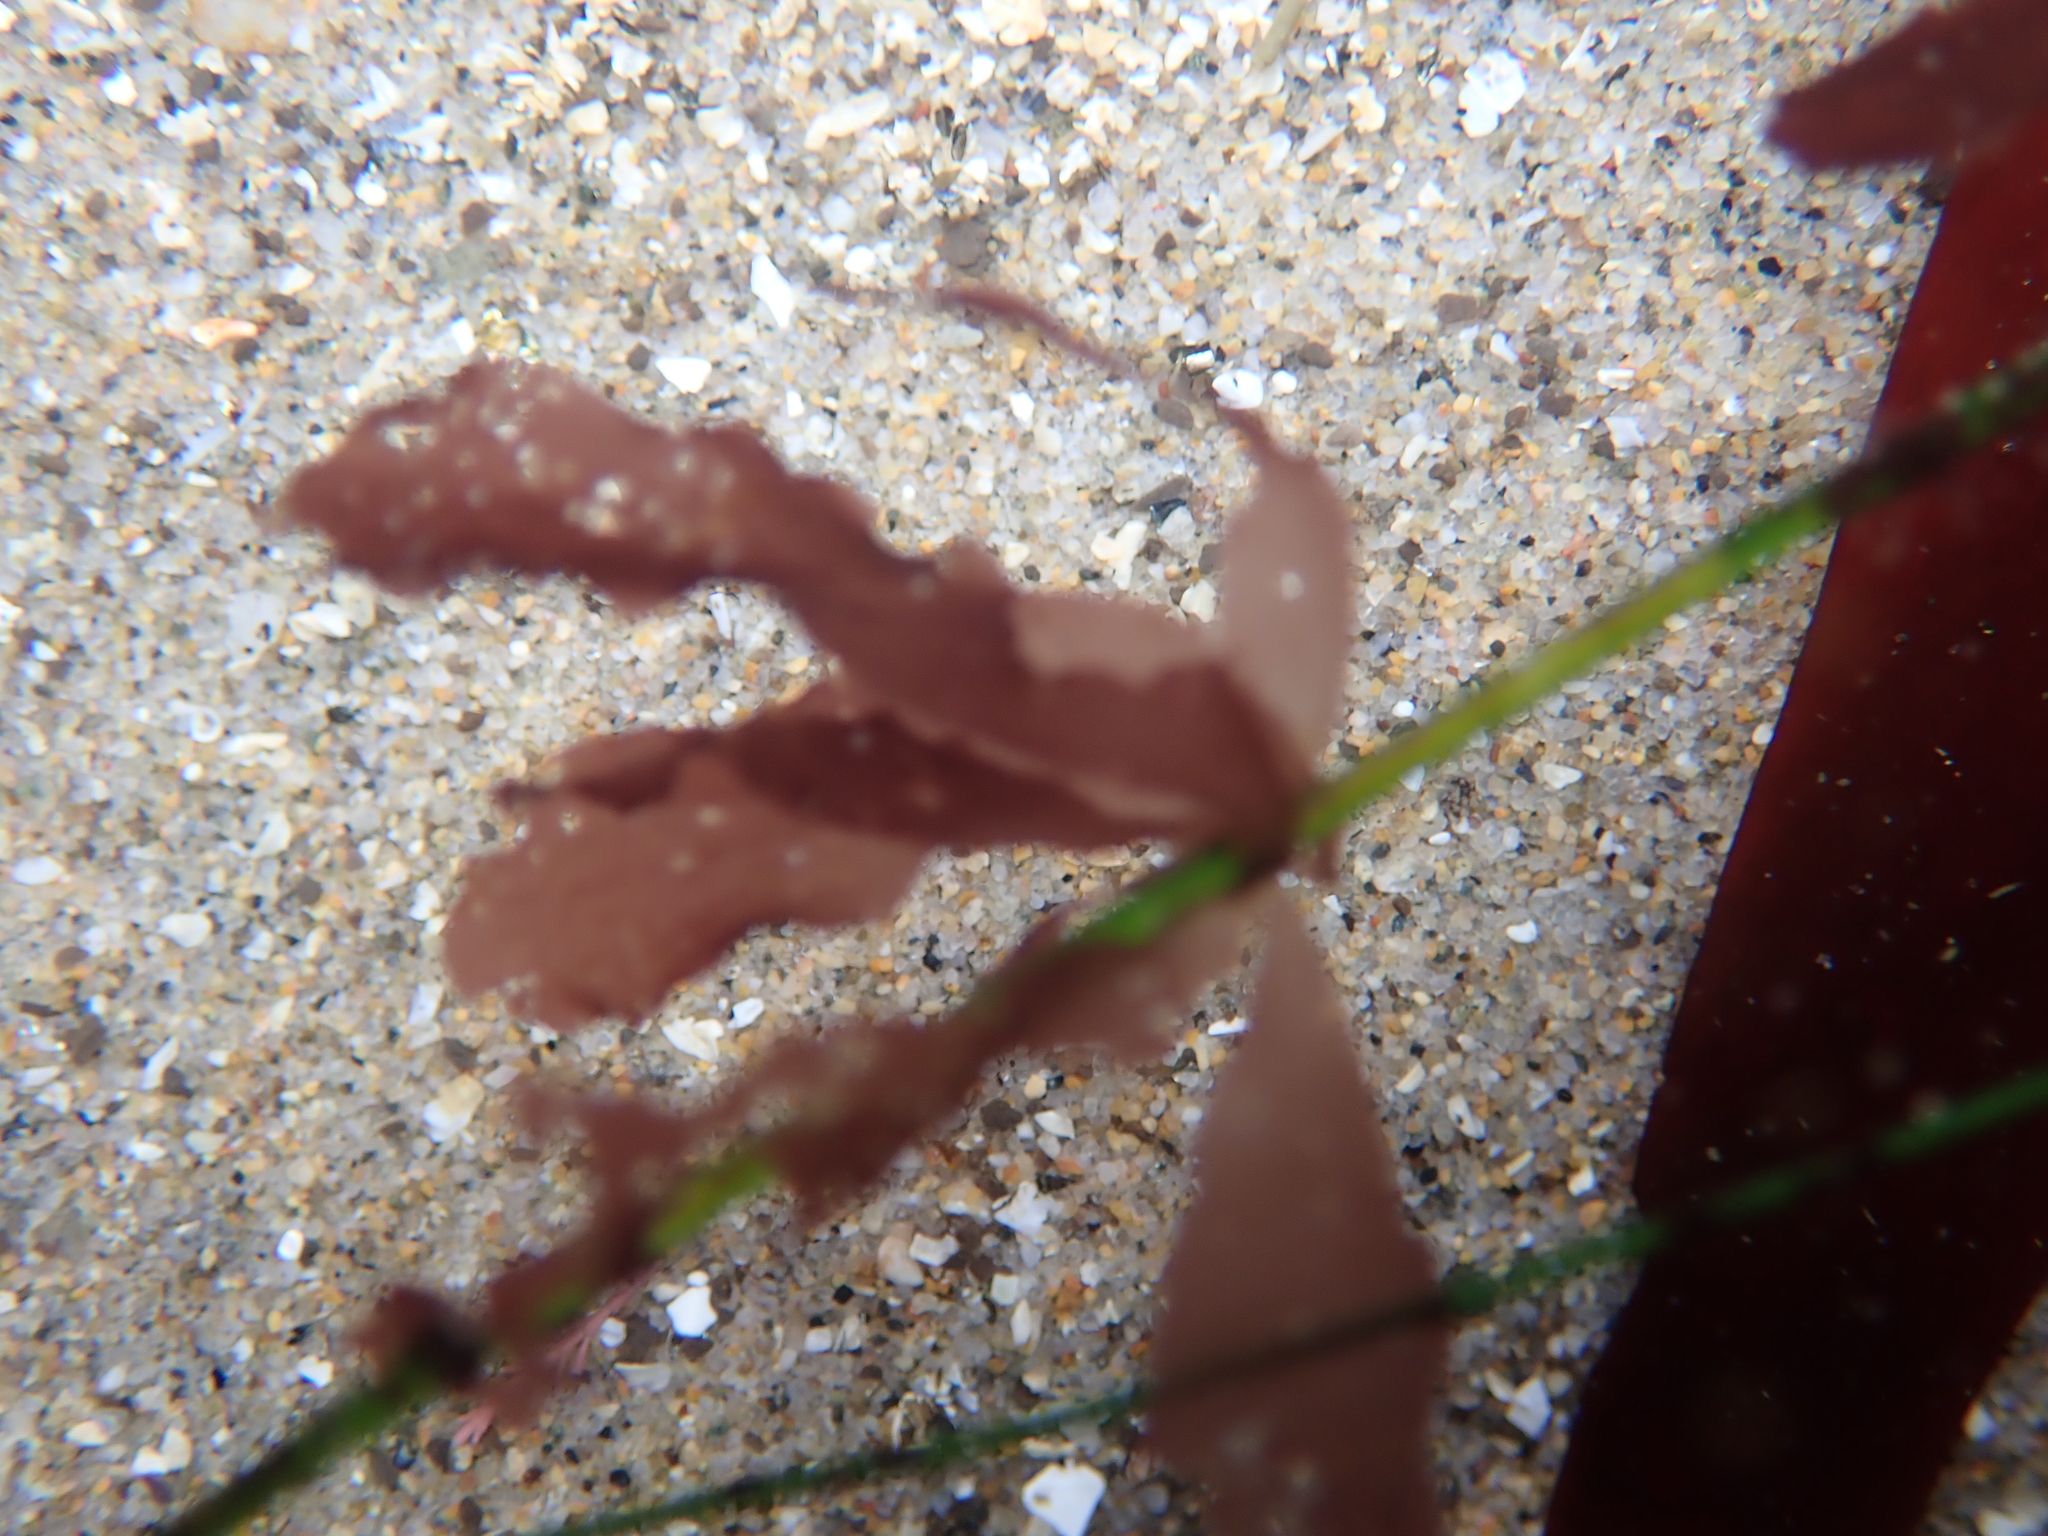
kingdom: Plantae
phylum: Rhodophyta
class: Compsopogonophyceae
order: Erythropeltidales
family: Erythrotrichiaceae
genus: Smithora
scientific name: Smithora naiadum
